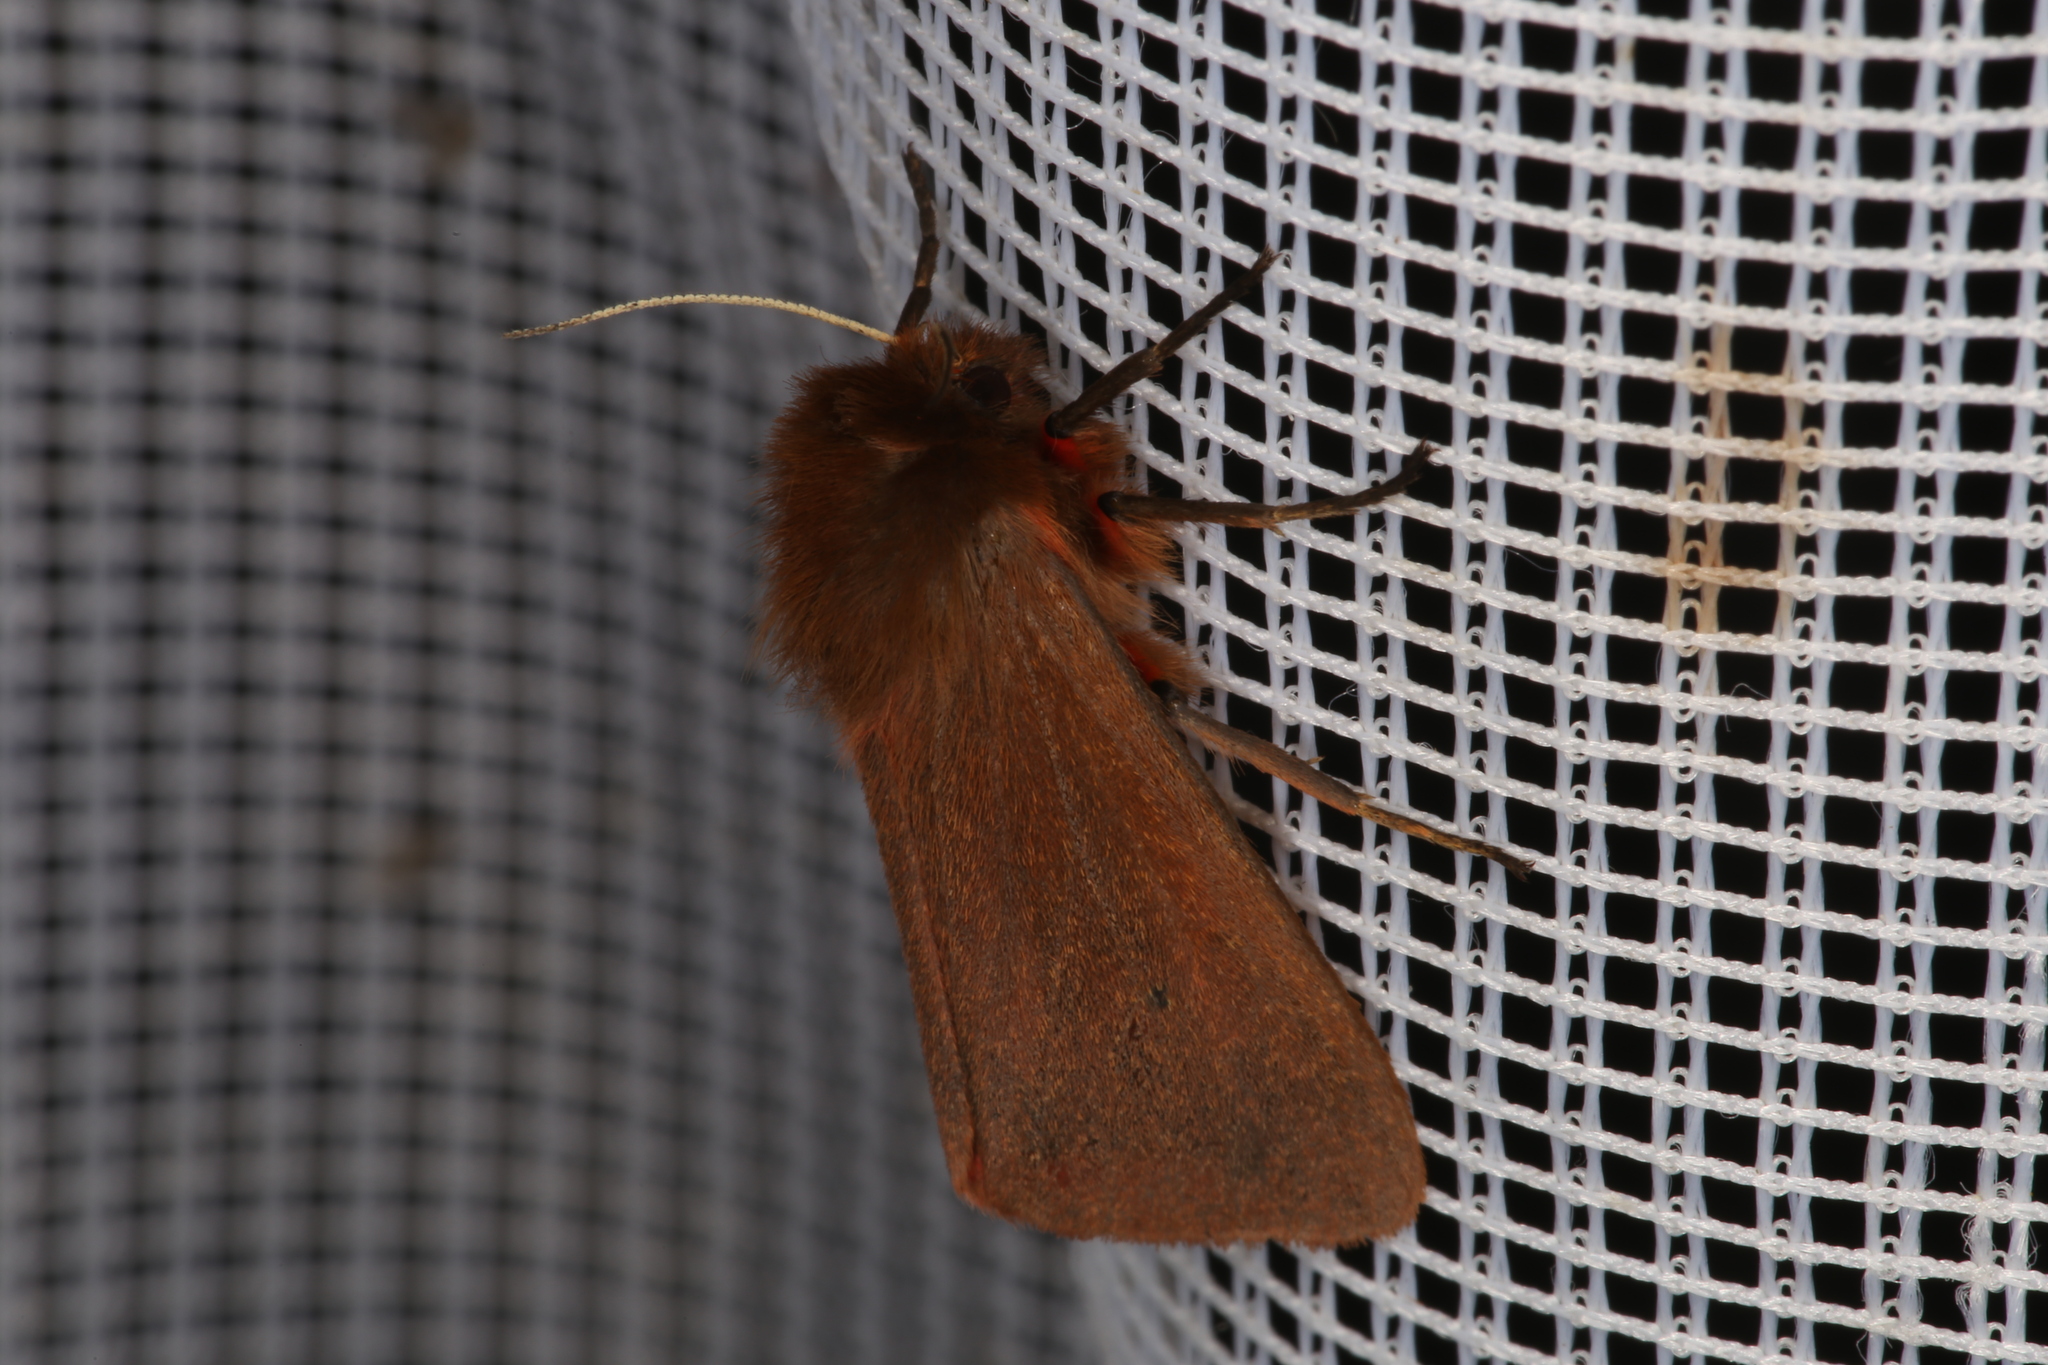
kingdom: Animalia
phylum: Arthropoda
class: Insecta
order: Lepidoptera
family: Erebidae
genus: Phragmatobia
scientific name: Phragmatobia fuliginosa
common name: Ruby tiger
